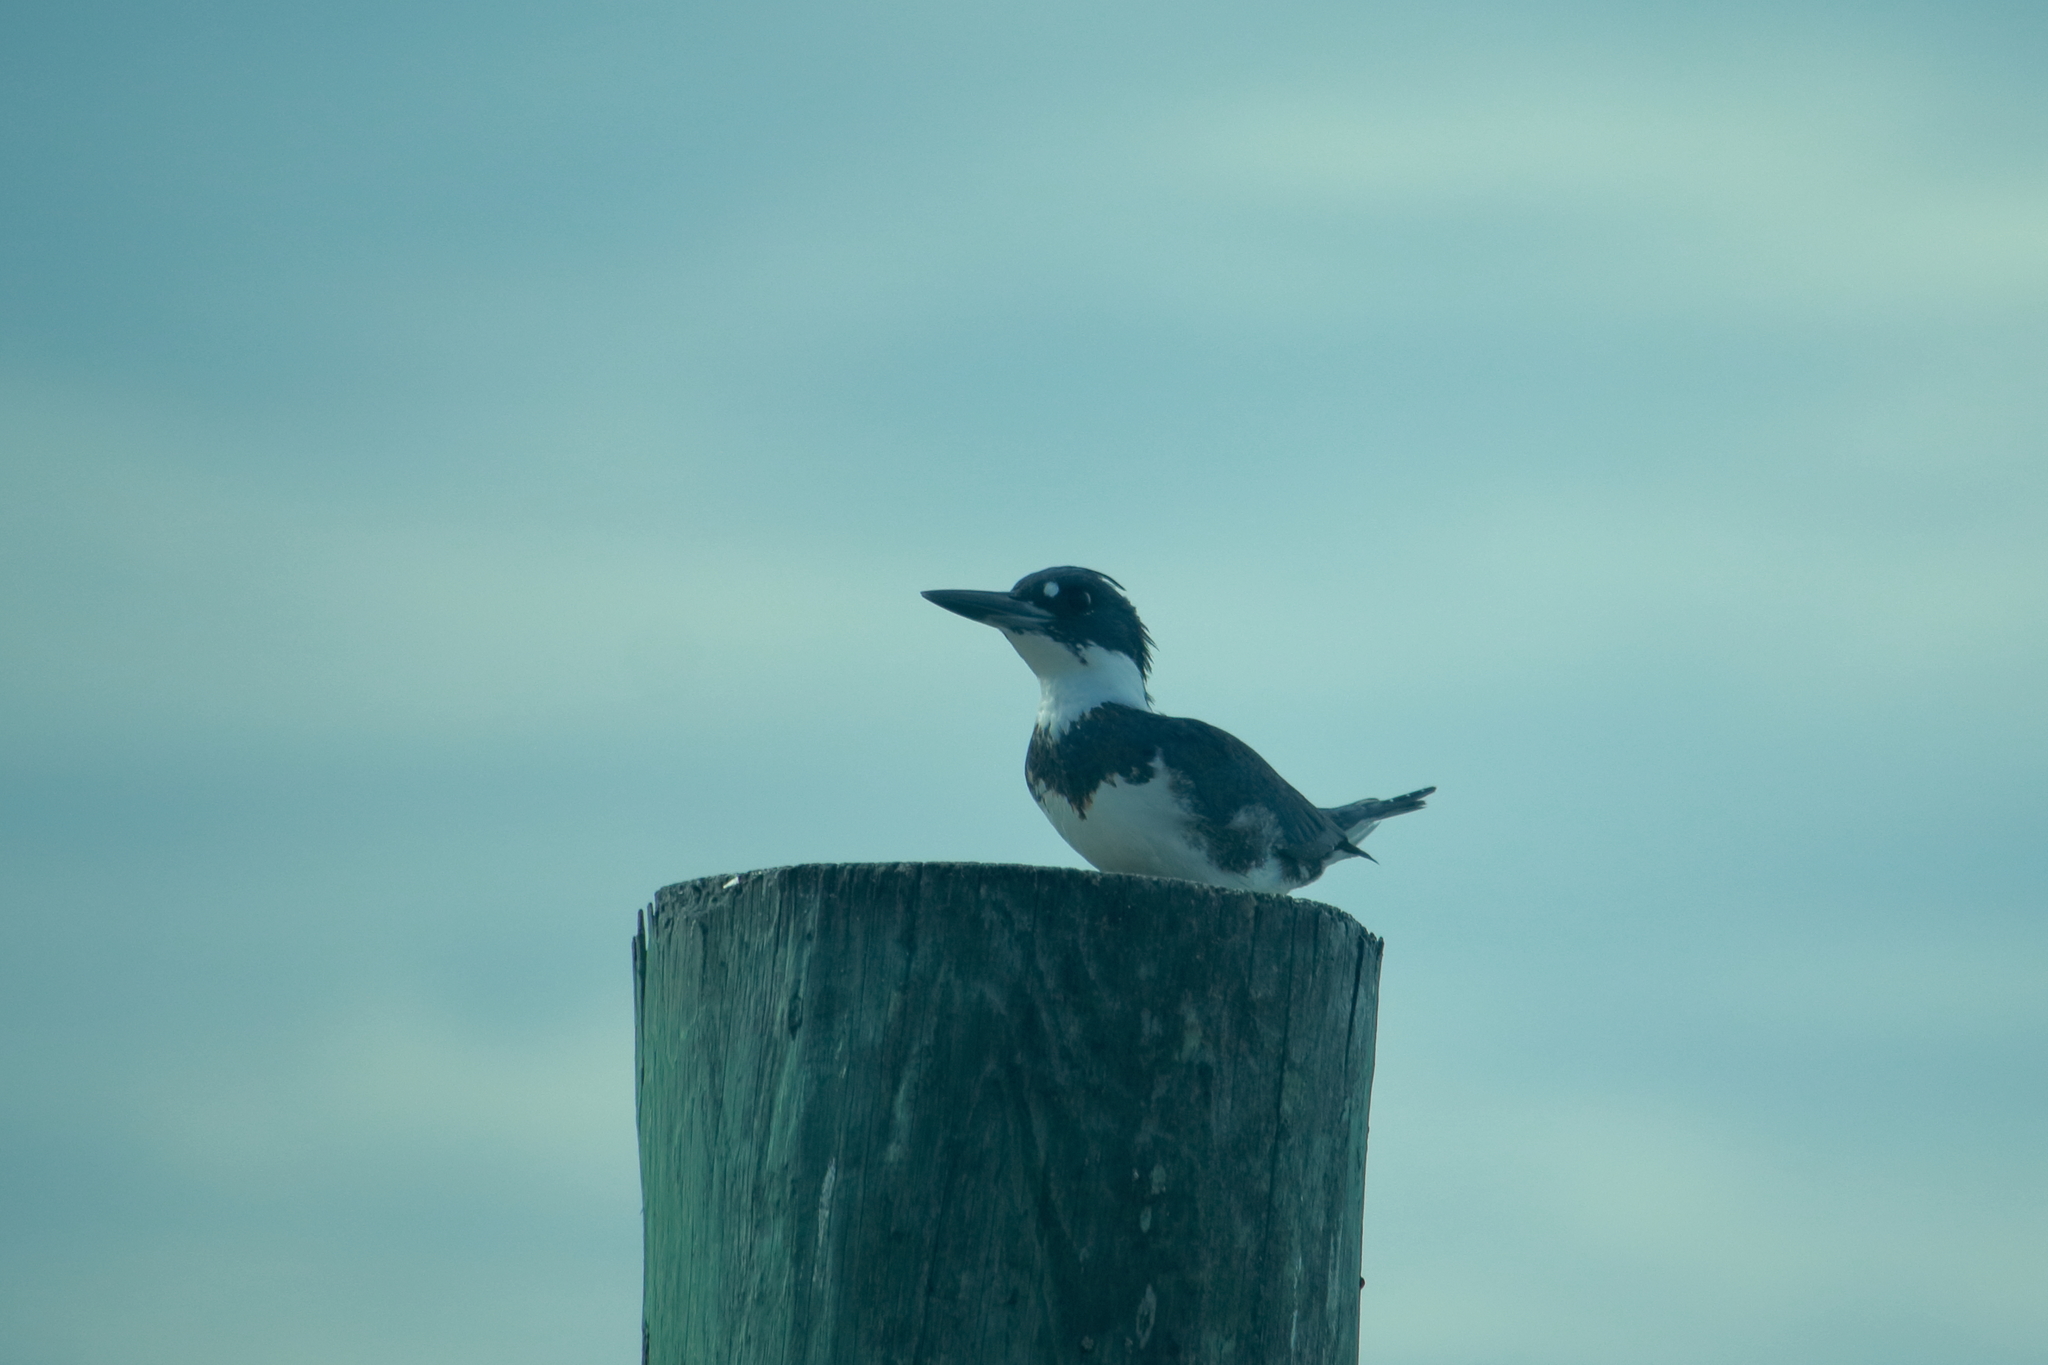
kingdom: Animalia
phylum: Chordata
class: Aves
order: Coraciiformes
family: Alcedinidae
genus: Megaceryle
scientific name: Megaceryle alcyon
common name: Belted kingfisher
